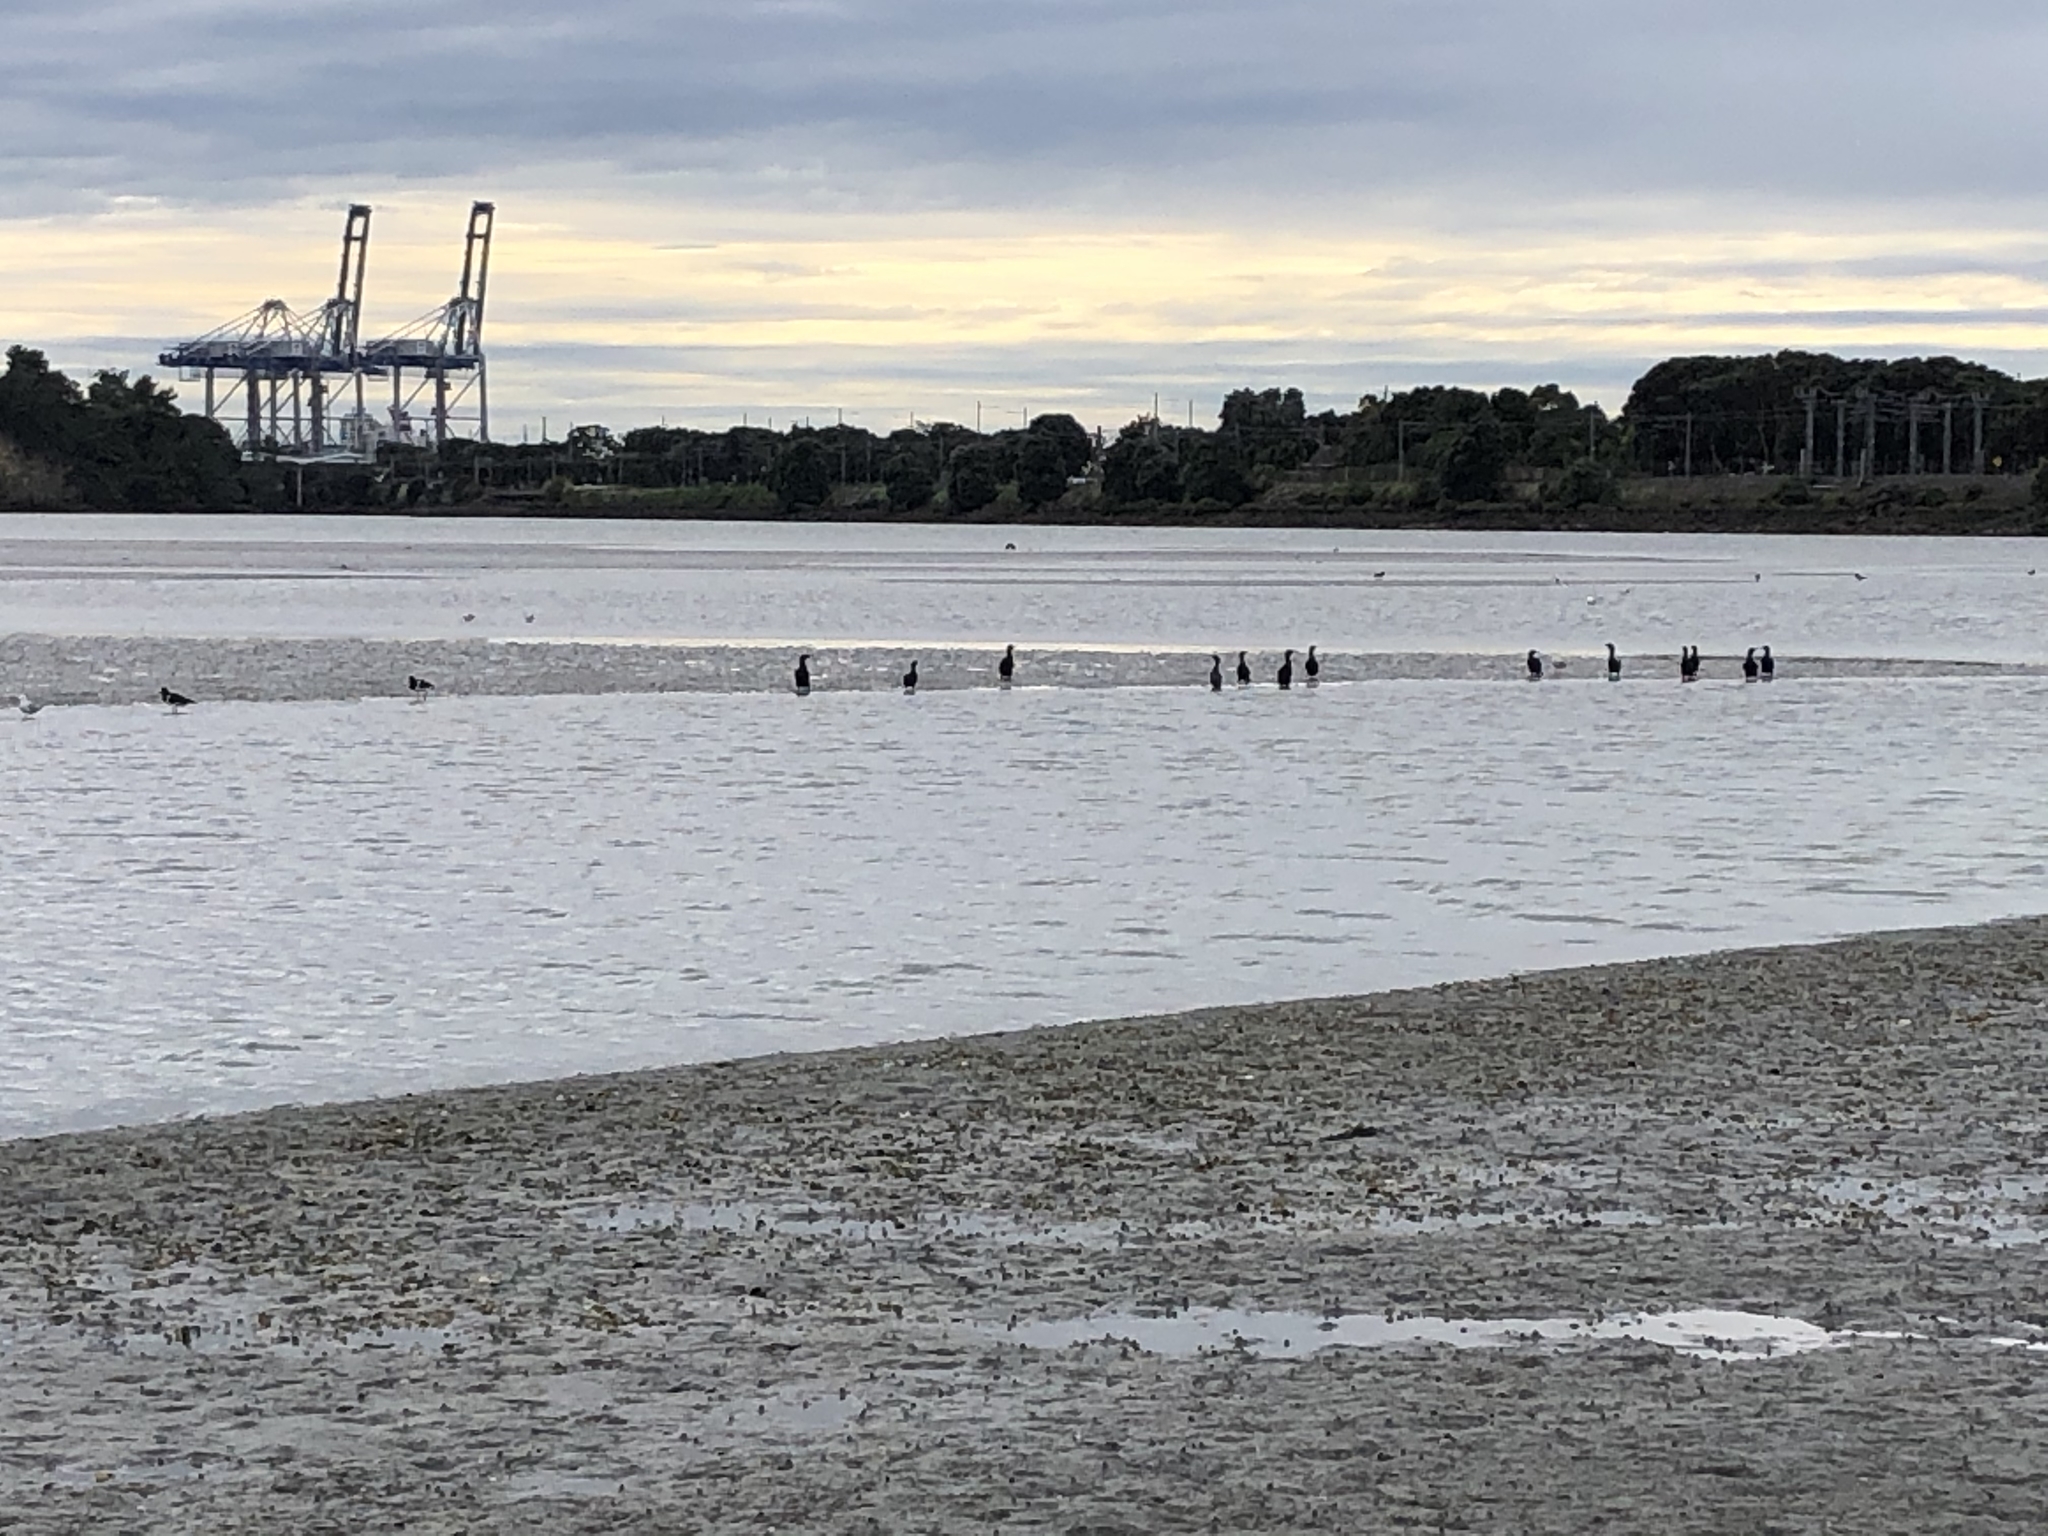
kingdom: Animalia
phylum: Chordata
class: Aves
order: Suliformes
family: Phalacrocoracidae
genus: Phalacrocorax
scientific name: Phalacrocorax sulcirostris
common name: Little black cormorant
